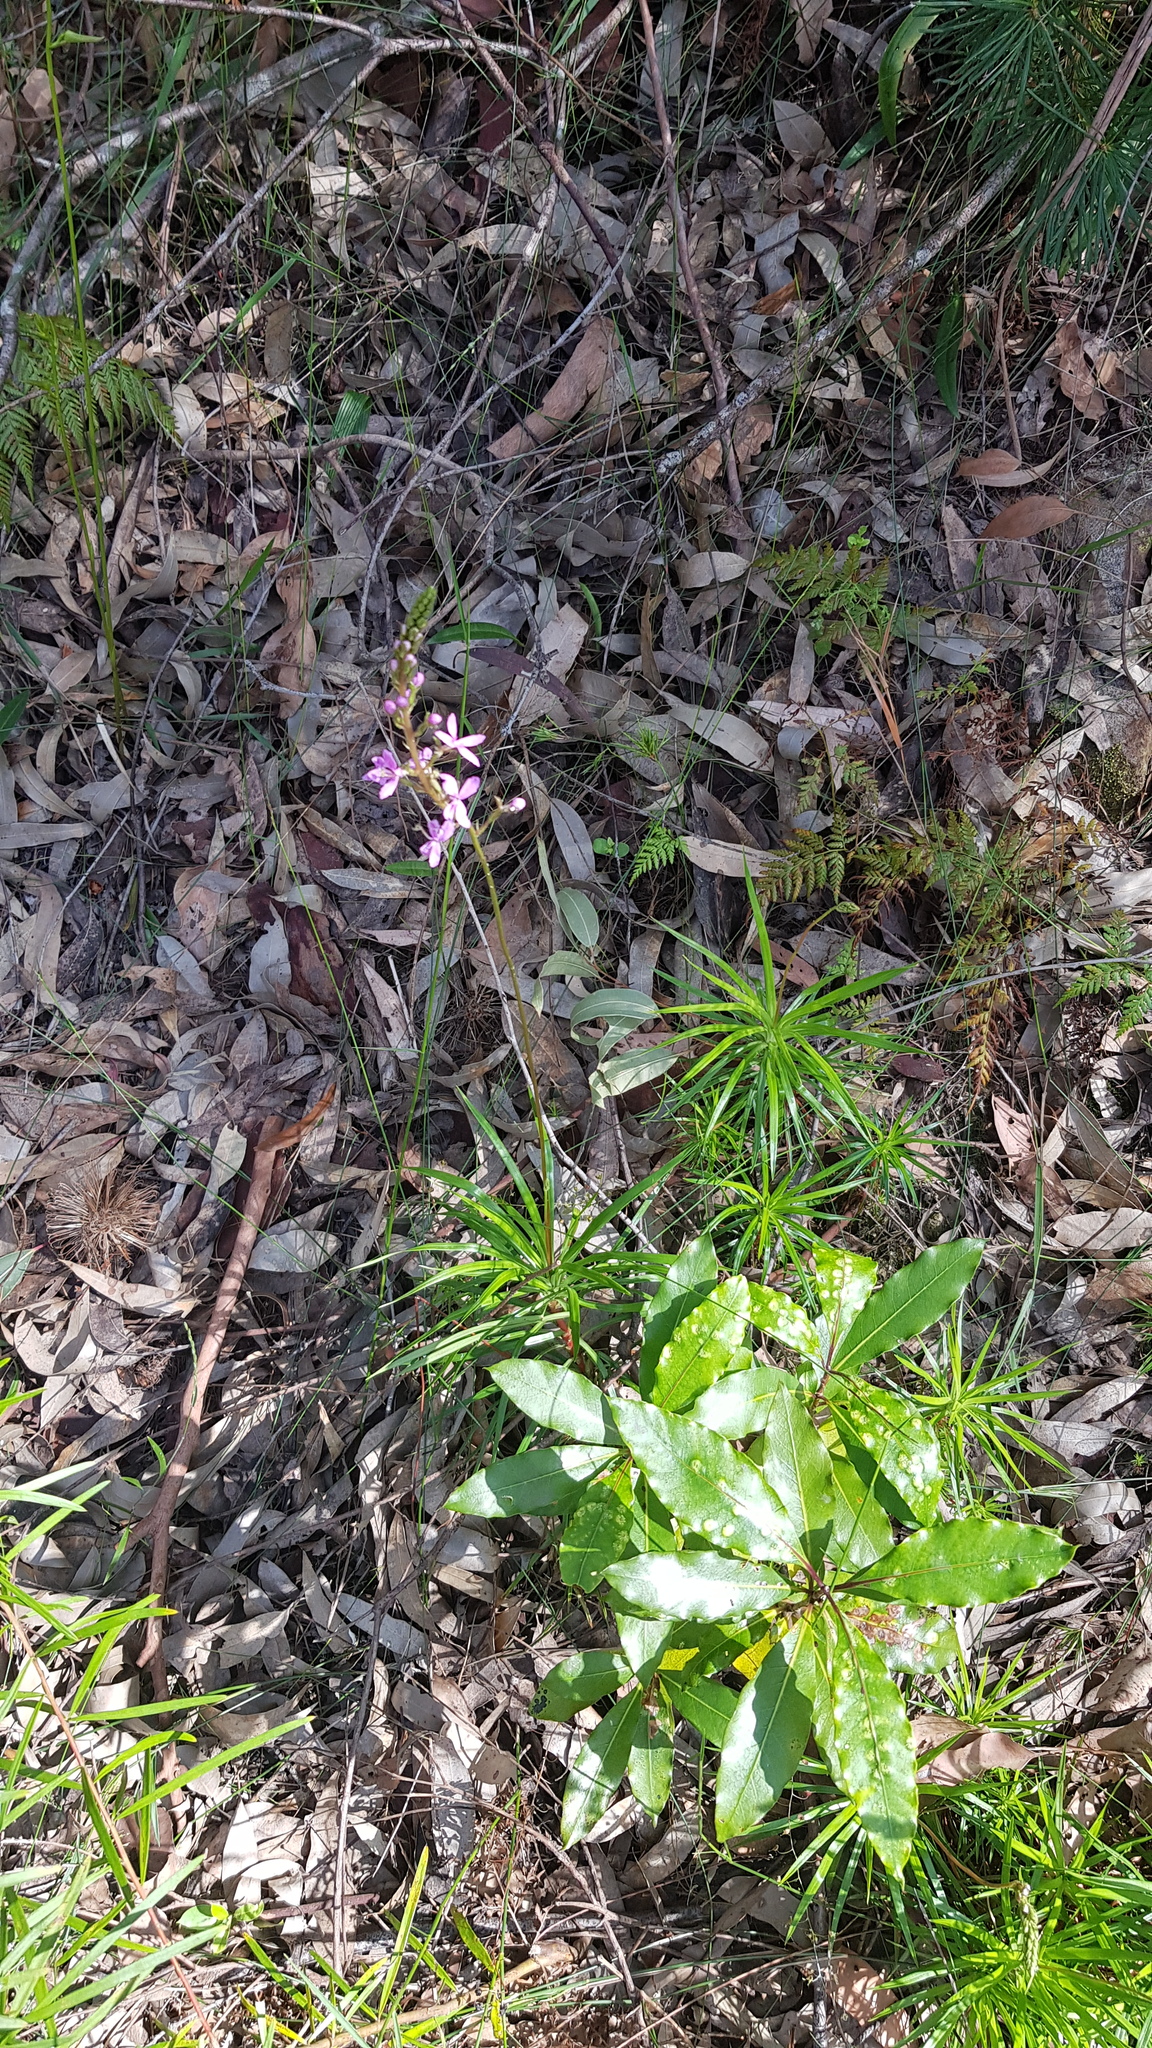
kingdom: Plantae
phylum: Tracheophyta
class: Magnoliopsida
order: Asterales
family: Stylidiaceae
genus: Stylidium
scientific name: Stylidium productum
